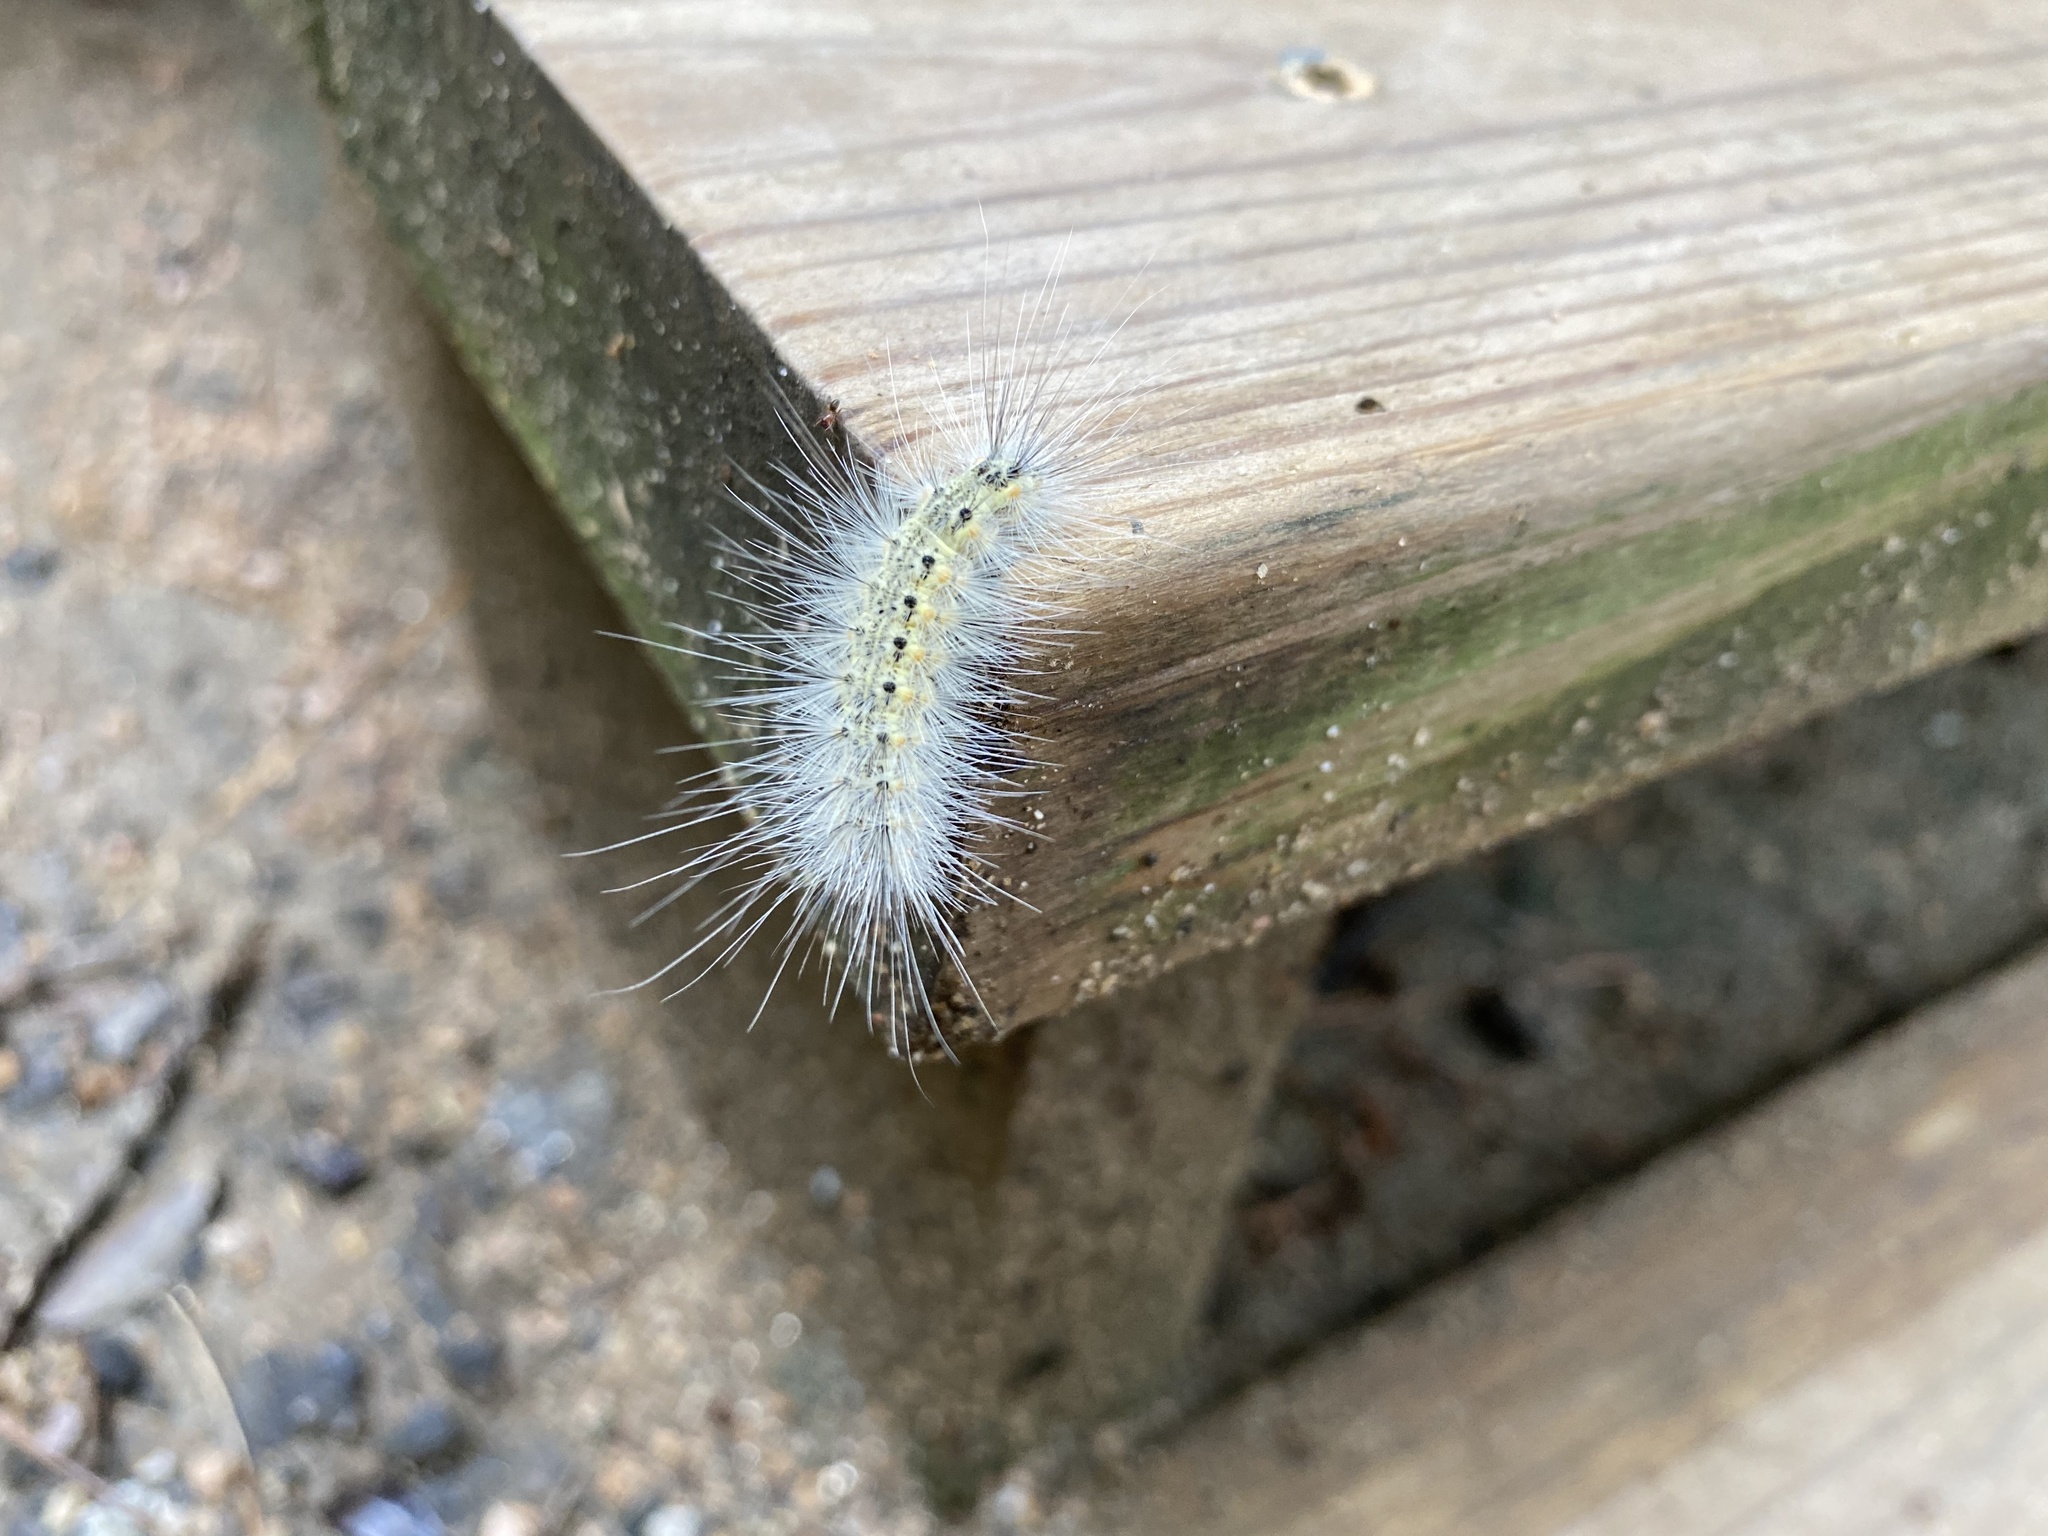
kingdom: Animalia
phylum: Arthropoda
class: Insecta
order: Lepidoptera
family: Erebidae
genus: Hyphantria
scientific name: Hyphantria cunea
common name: American white moth
